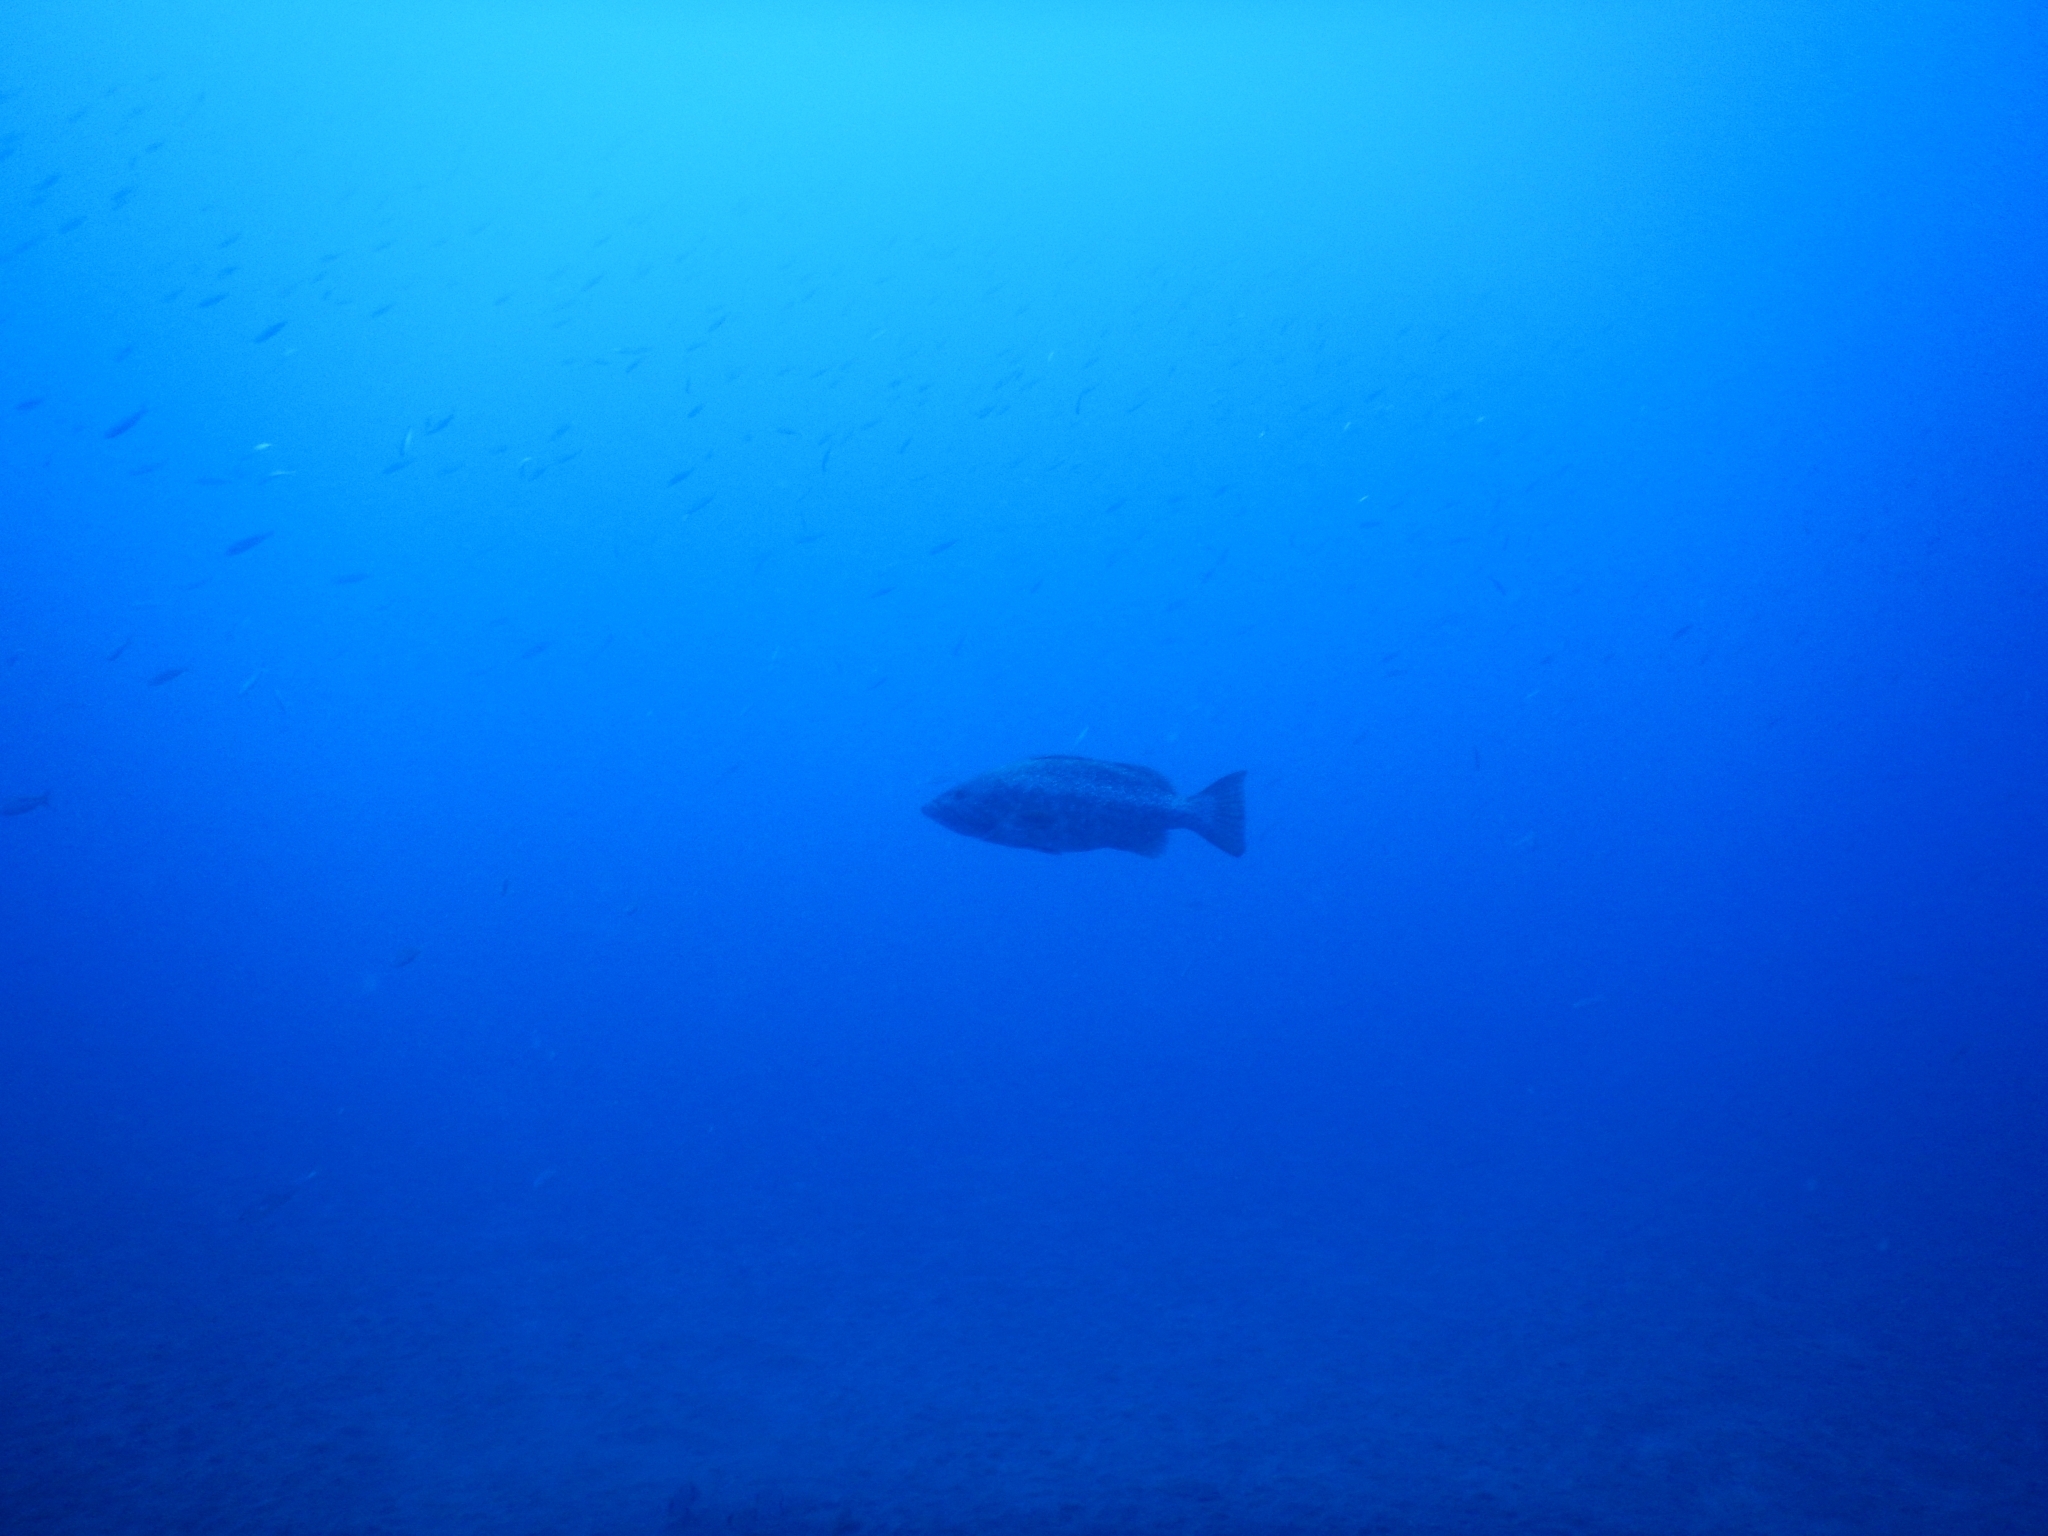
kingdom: Animalia
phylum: Chordata
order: Perciformes
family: Serranidae
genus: Mycteroperca
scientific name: Mycteroperca fusca
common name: Island grouper
